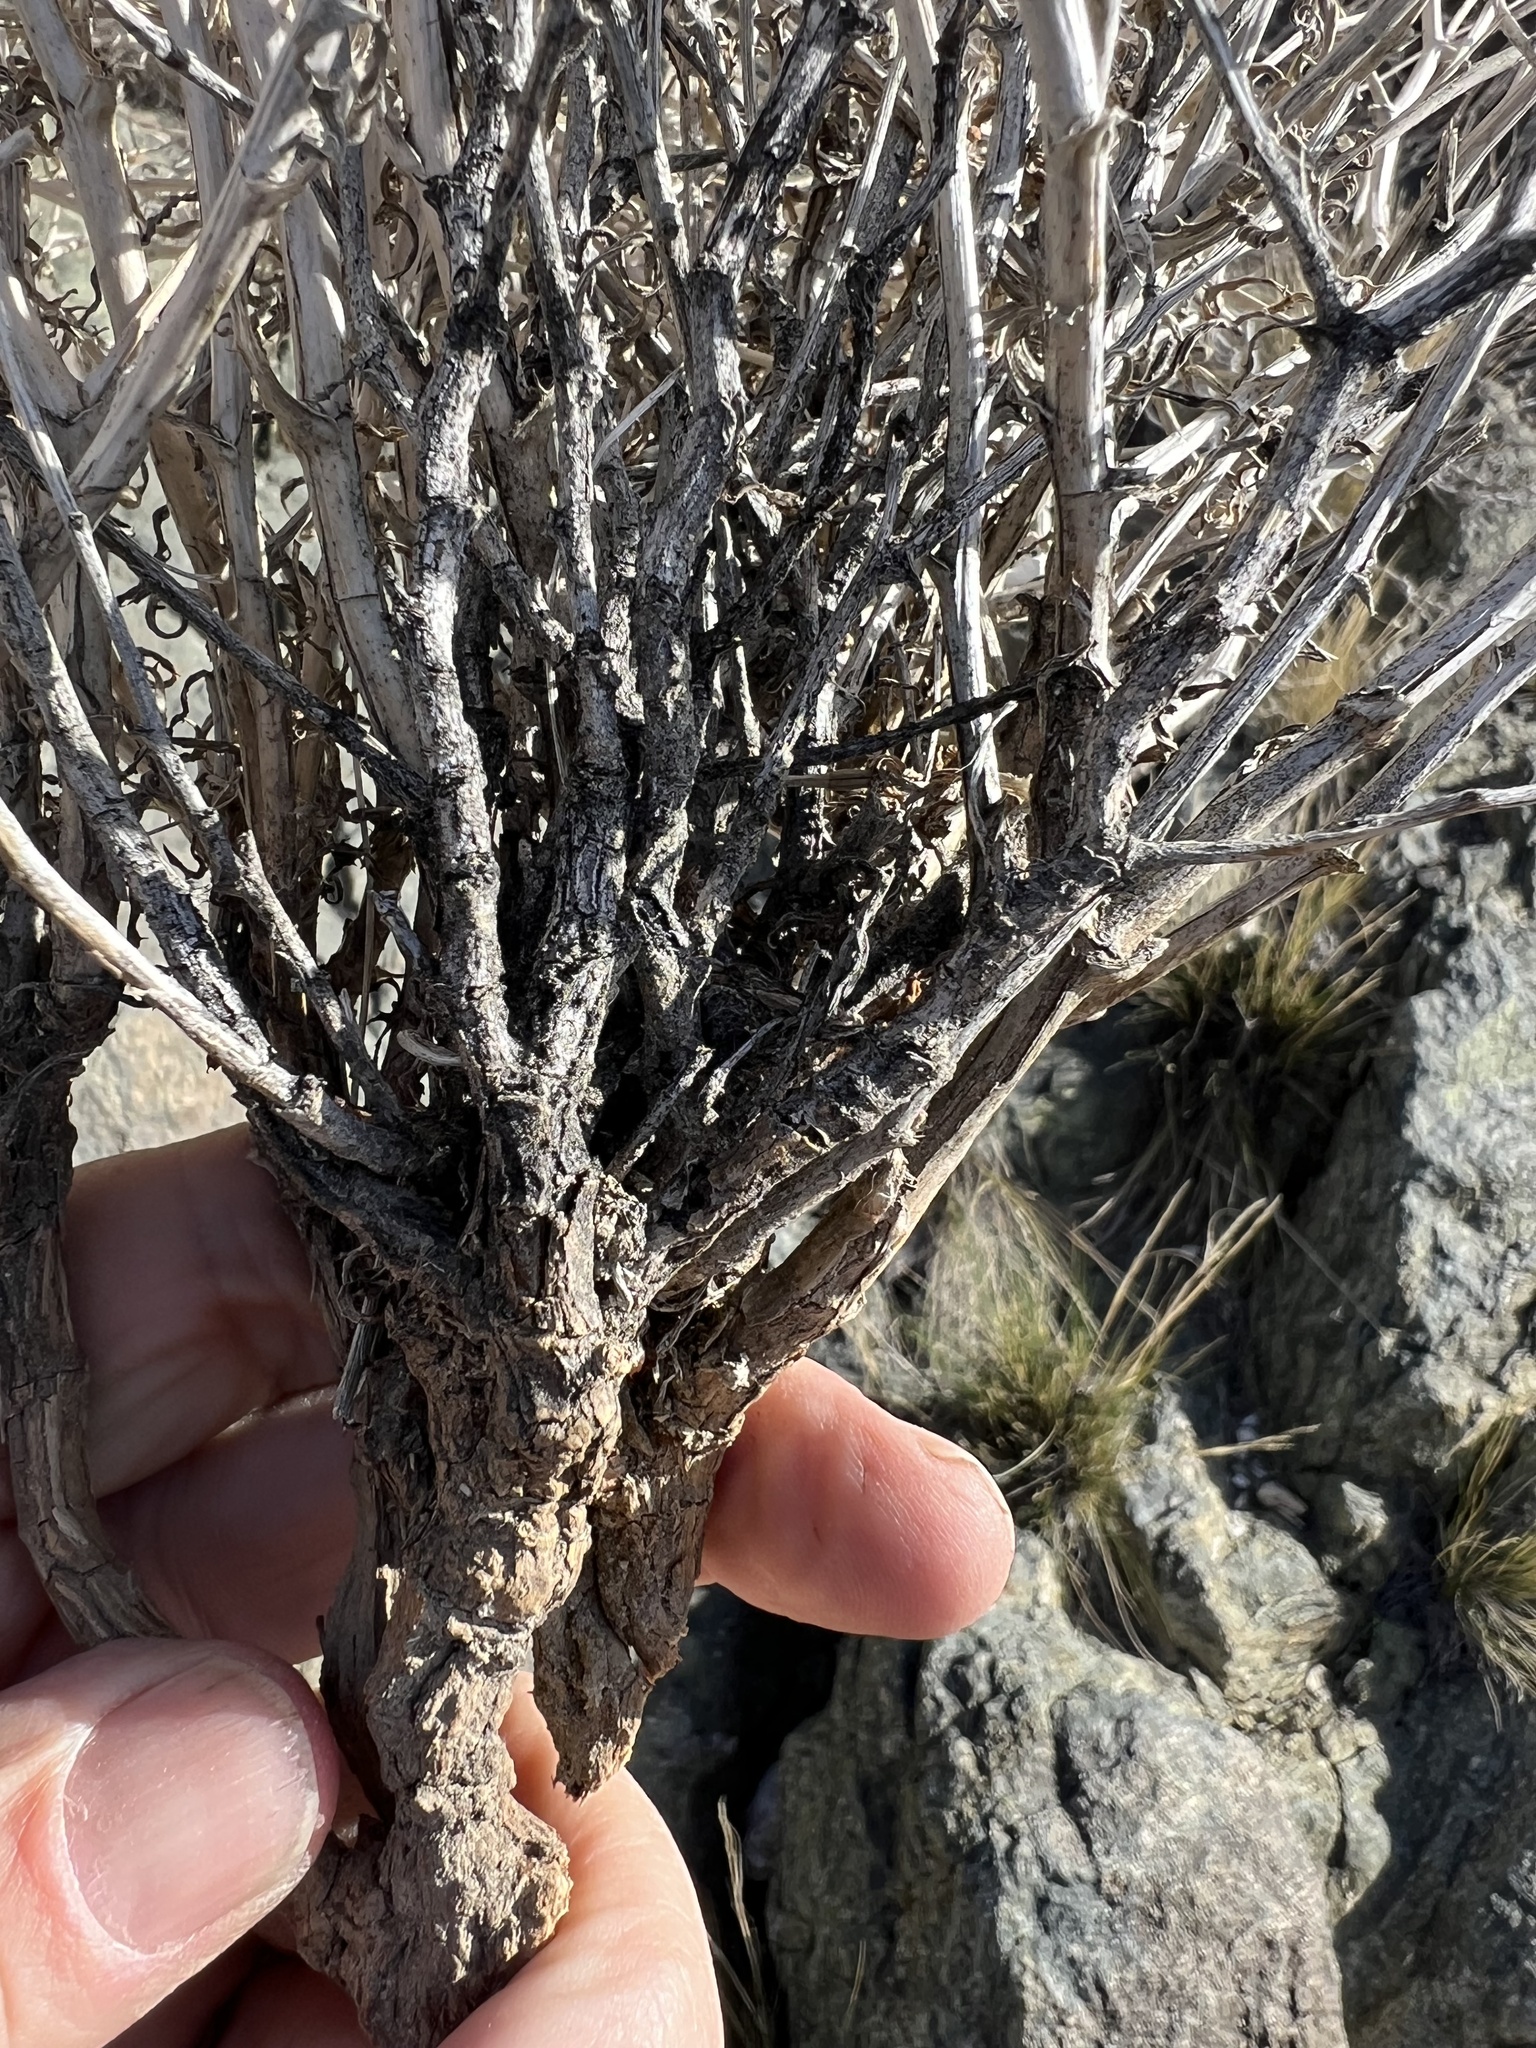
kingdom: Plantae
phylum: Tracheophyta
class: Magnoliopsida
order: Asterales
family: Asteraceae
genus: Stephanomeria
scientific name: Stephanomeria pauciflora
